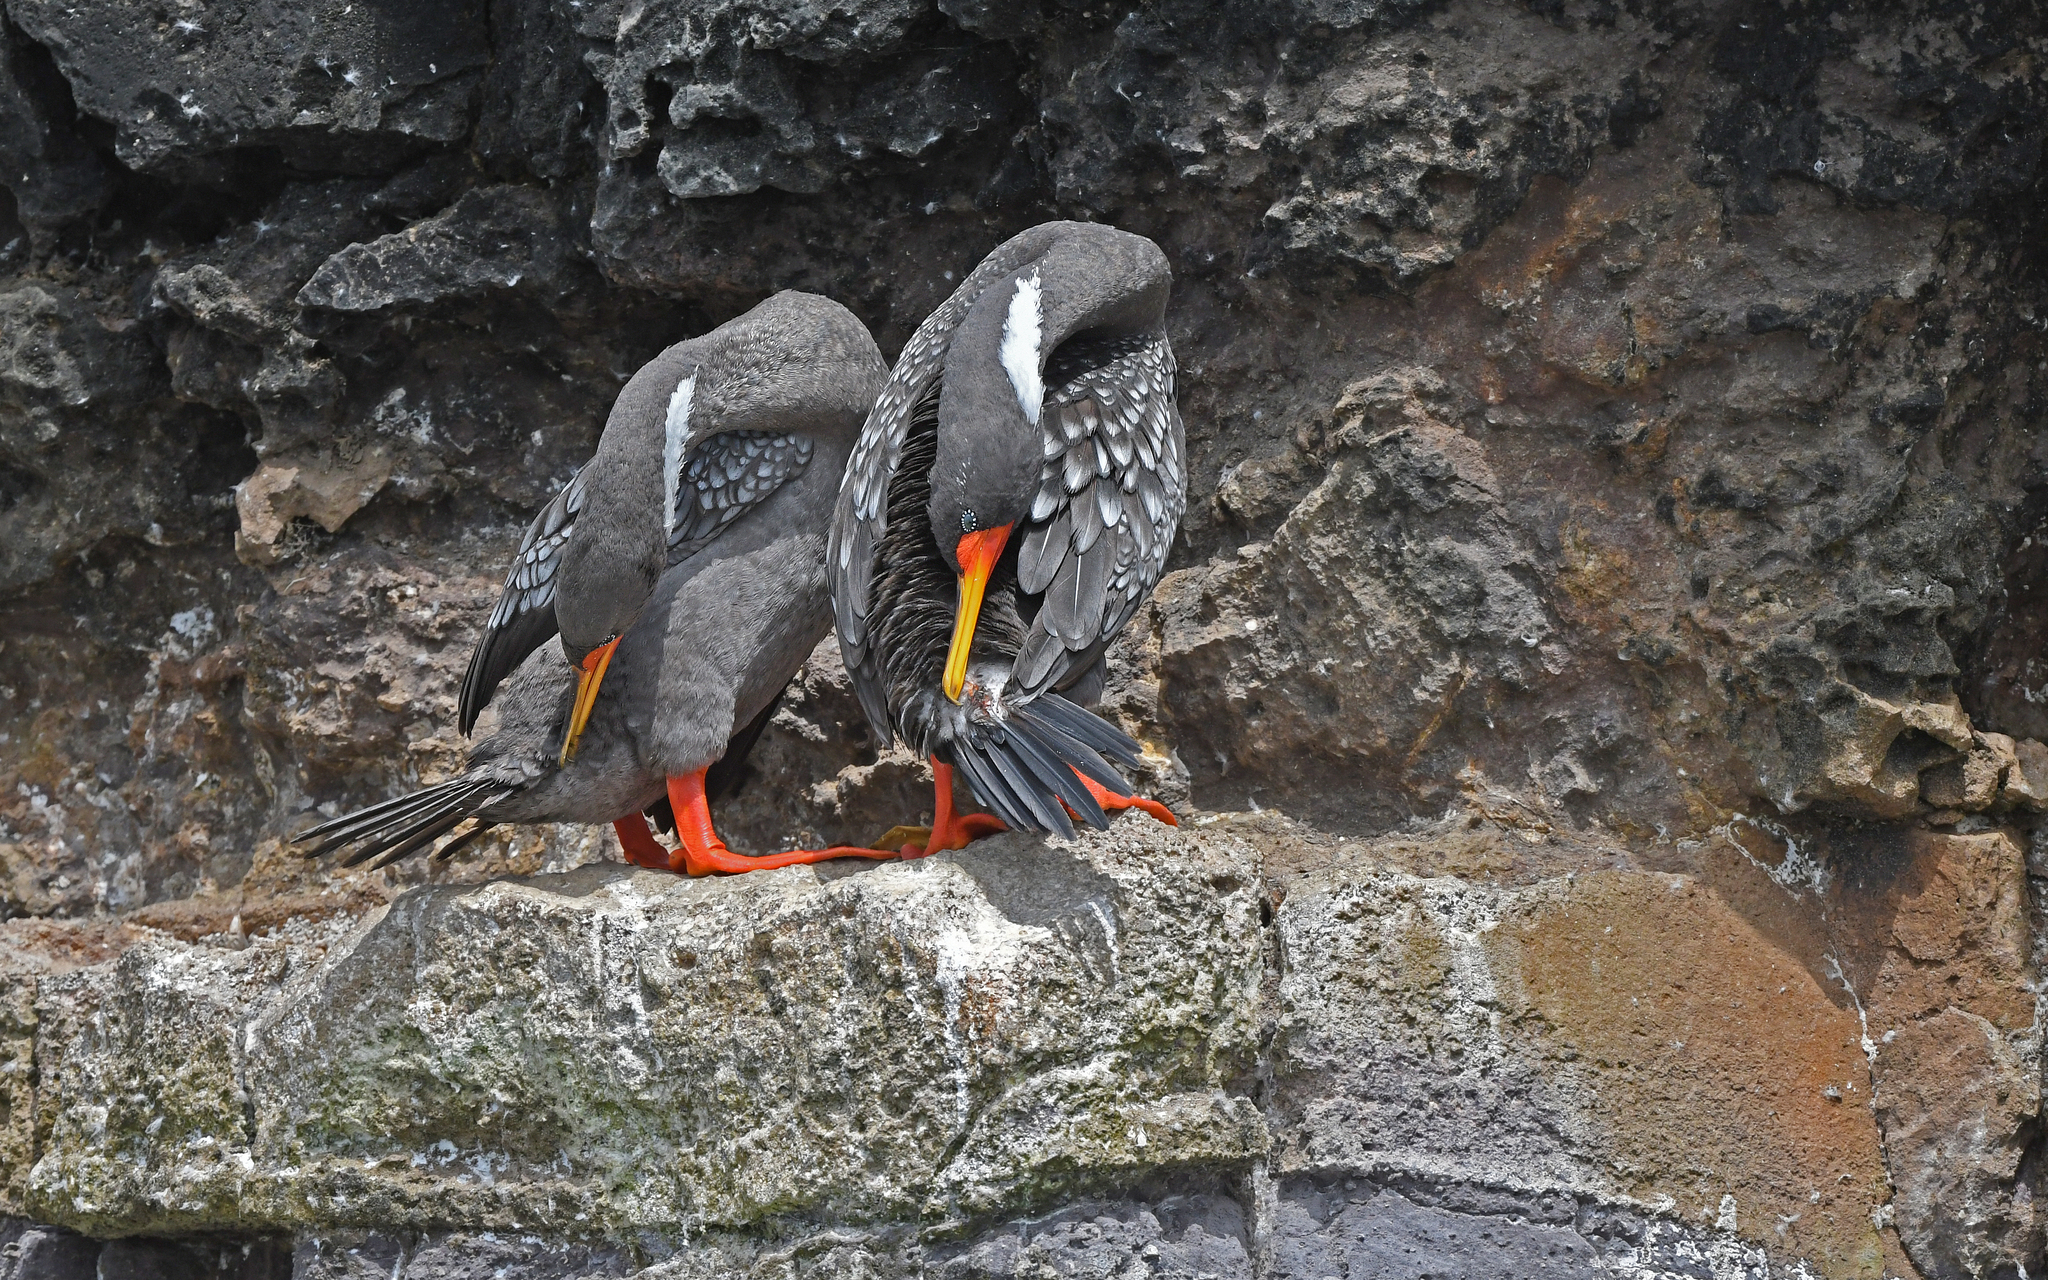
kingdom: Animalia
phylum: Chordata
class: Aves
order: Suliformes
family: Phalacrocoracidae
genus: Phalacrocorax
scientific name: Phalacrocorax gaimardi
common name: Red-legged cormorant
